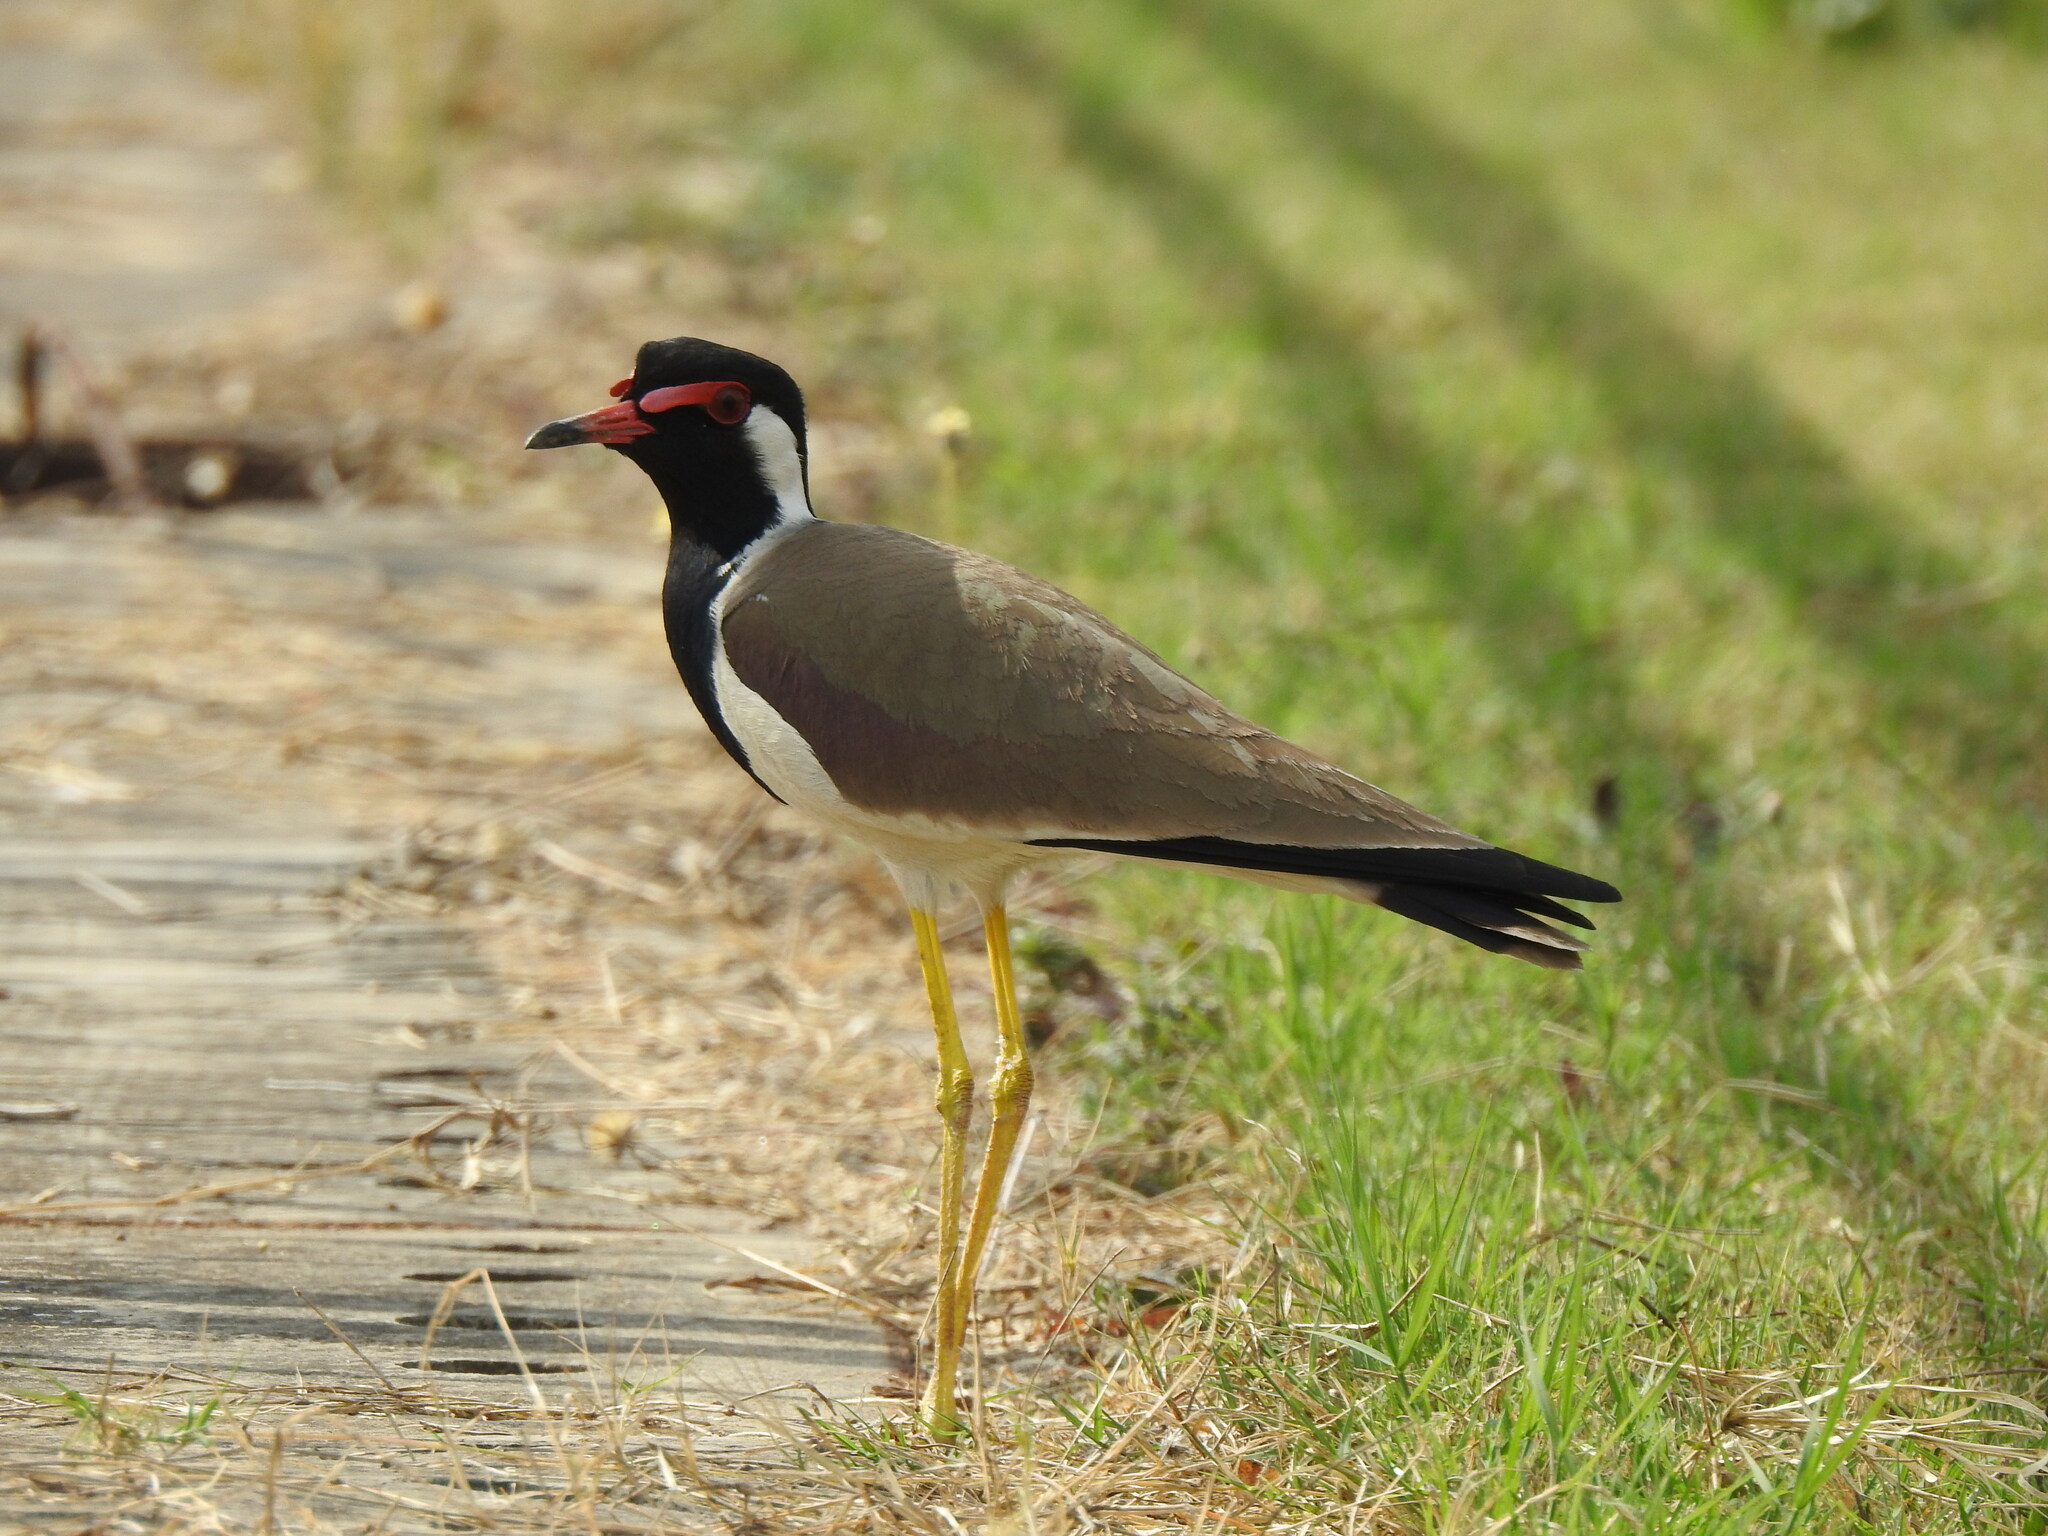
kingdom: Animalia
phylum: Chordata
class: Aves
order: Charadriiformes
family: Charadriidae
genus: Vanellus
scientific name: Vanellus indicus
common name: Red-wattled lapwing
